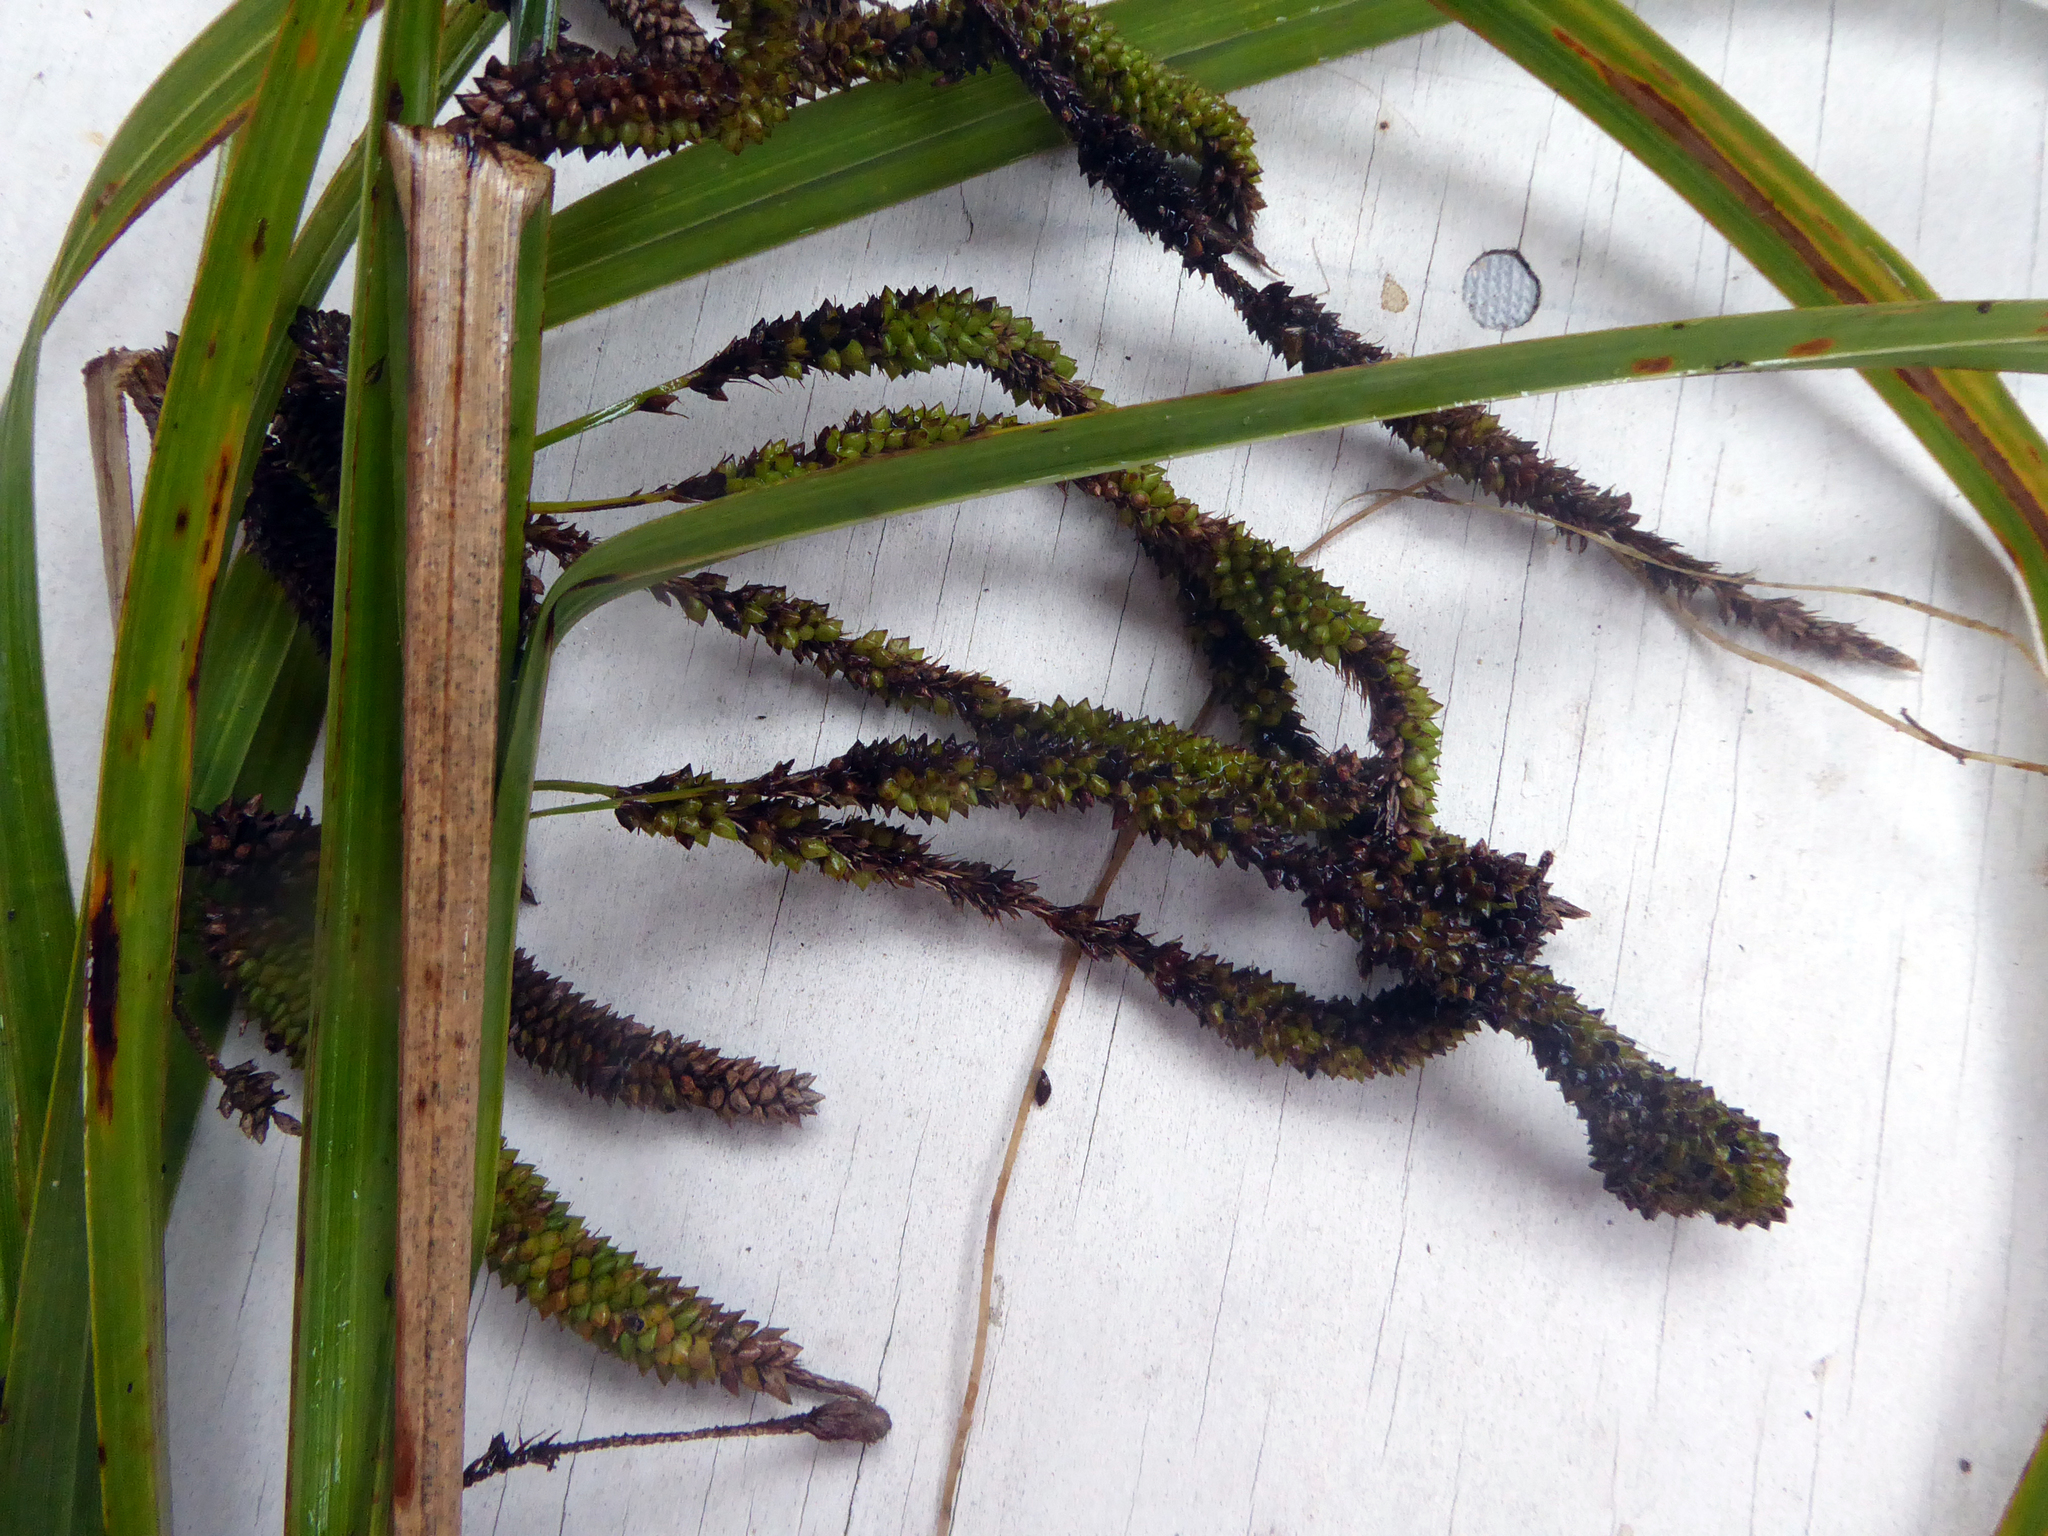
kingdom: Plantae
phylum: Tracheophyta
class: Liliopsida
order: Poales
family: Cyperaceae
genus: Carex
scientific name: Carex geminata
